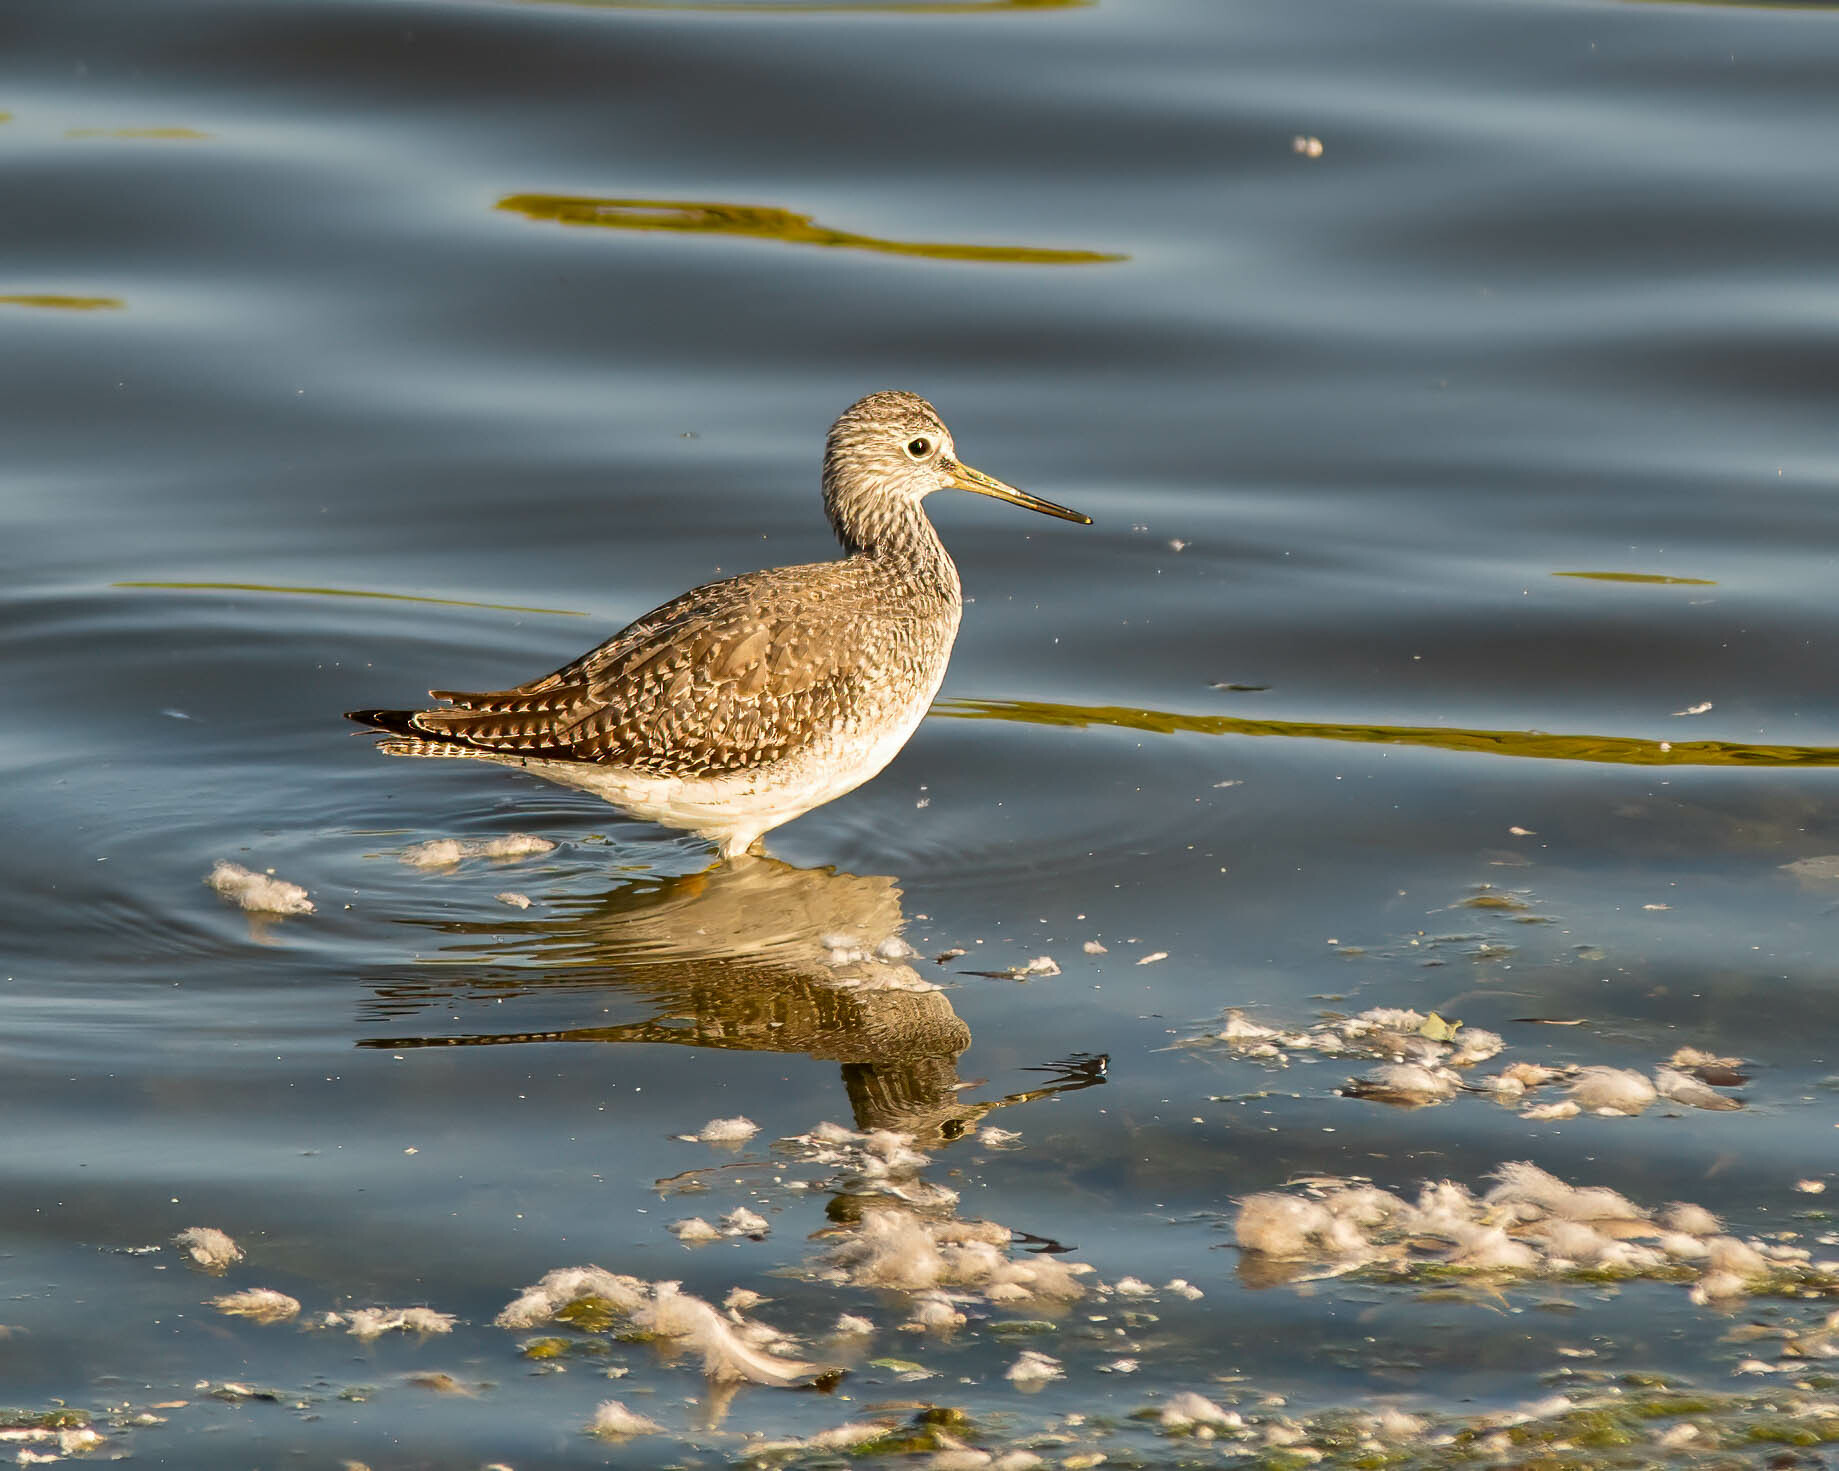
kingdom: Animalia
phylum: Chordata
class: Aves
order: Charadriiformes
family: Scolopacidae
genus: Tringa
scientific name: Tringa melanoleuca
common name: Greater yellowlegs
